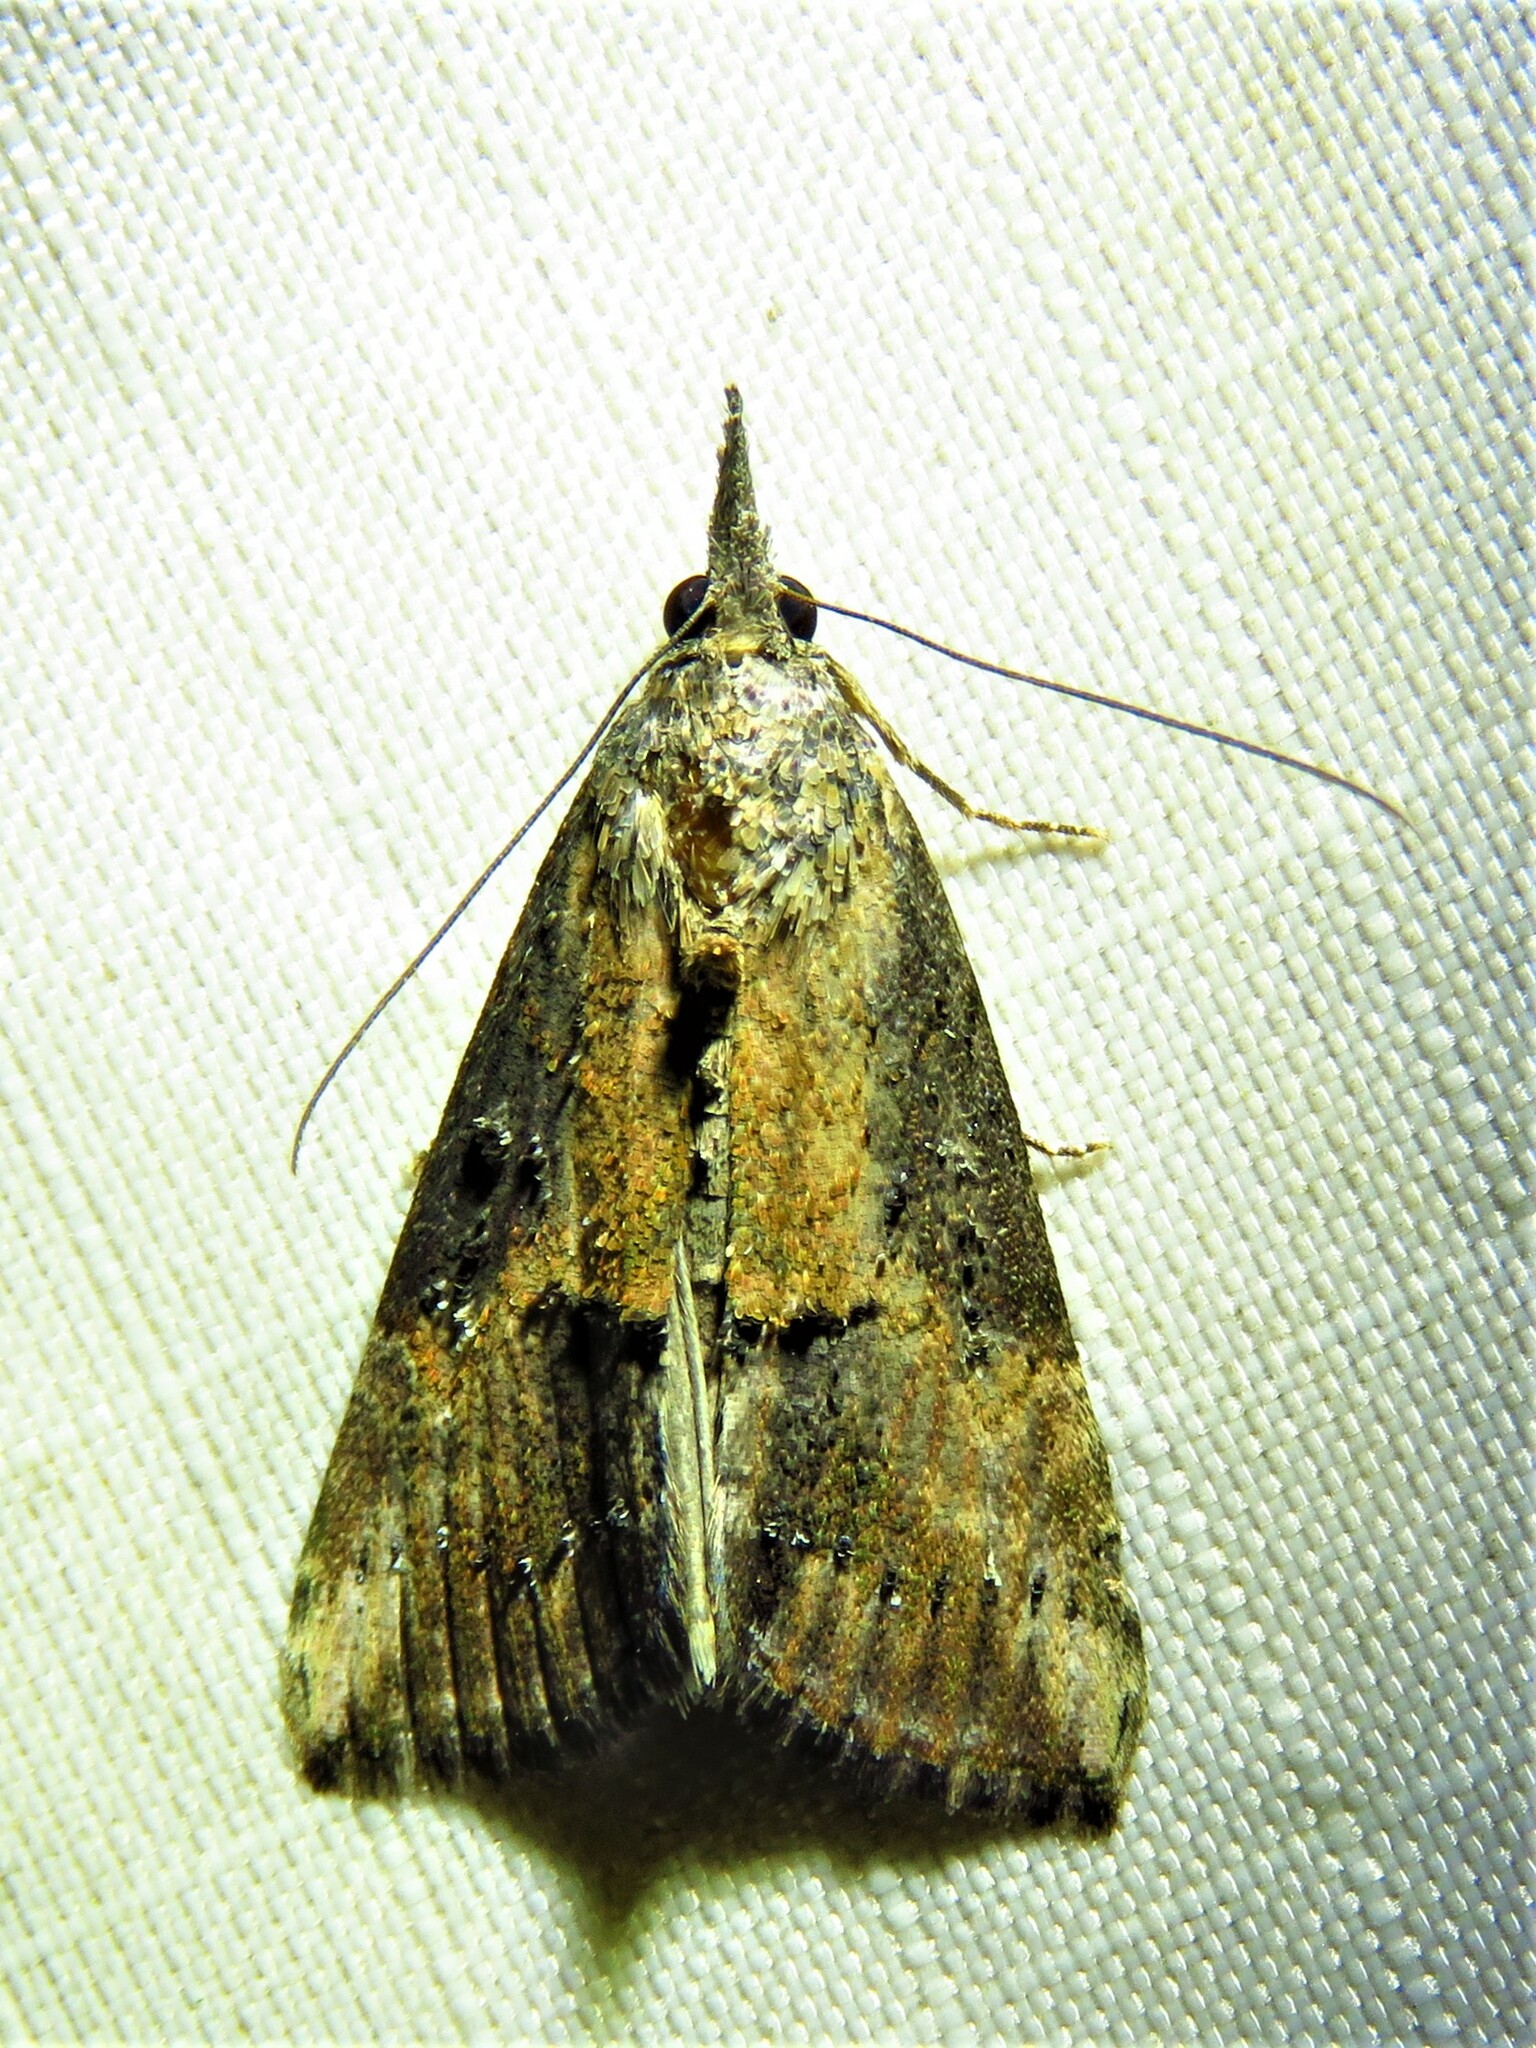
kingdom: Animalia
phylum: Arthropoda
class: Insecta
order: Lepidoptera
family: Erebidae
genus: Hypena
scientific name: Hypena scabra
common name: Green cloverworm
